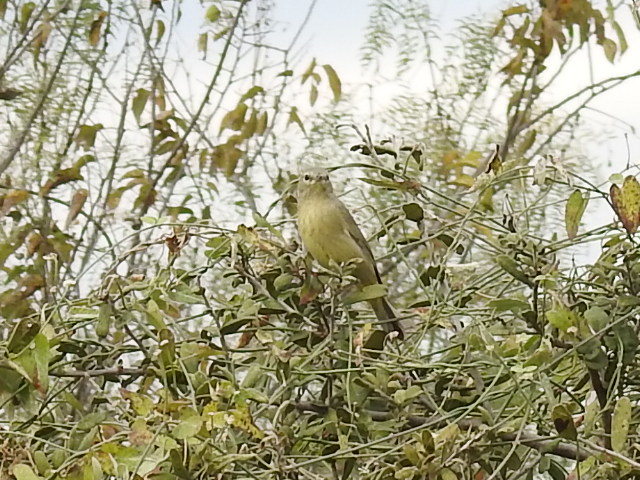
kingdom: Animalia
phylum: Chordata
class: Aves
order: Passeriformes
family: Parulidae
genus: Leiothlypis
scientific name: Leiothlypis celata
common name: Orange-crowned warbler
